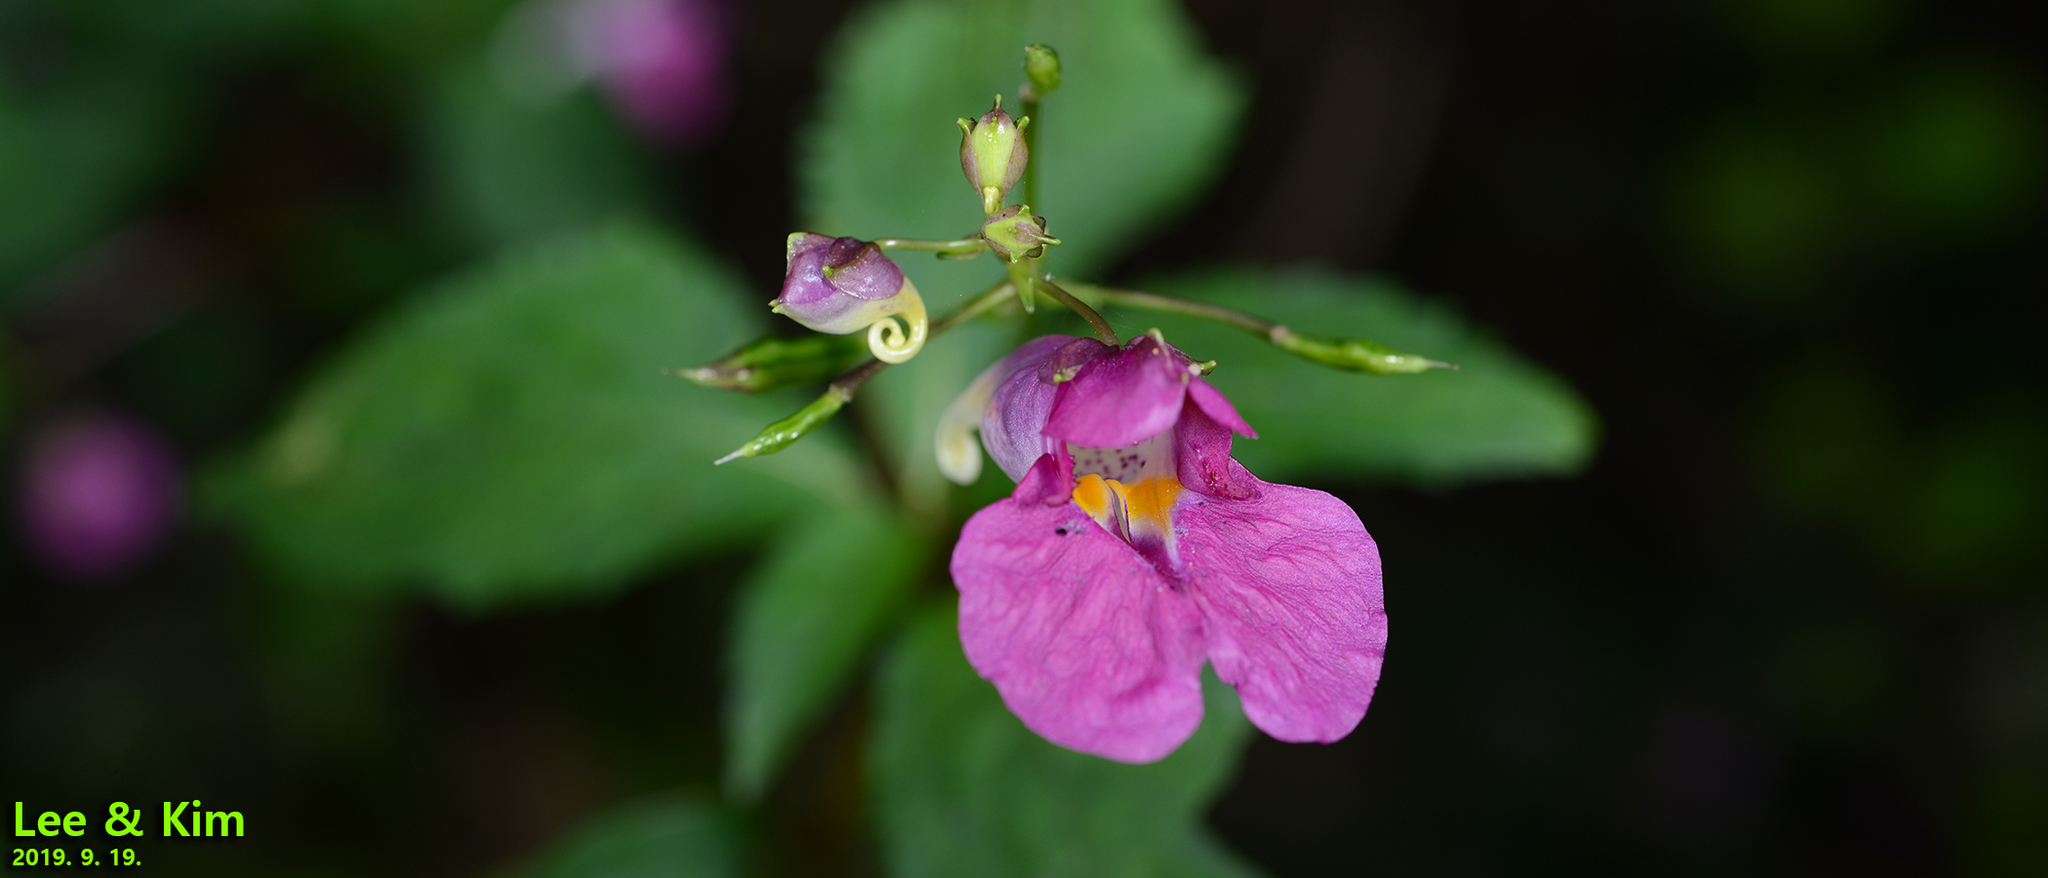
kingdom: Plantae
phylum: Tracheophyta
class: Magnoliopsida
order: Ericales
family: Balsaminaceae
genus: Impatiens
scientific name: Impatiens textorii
